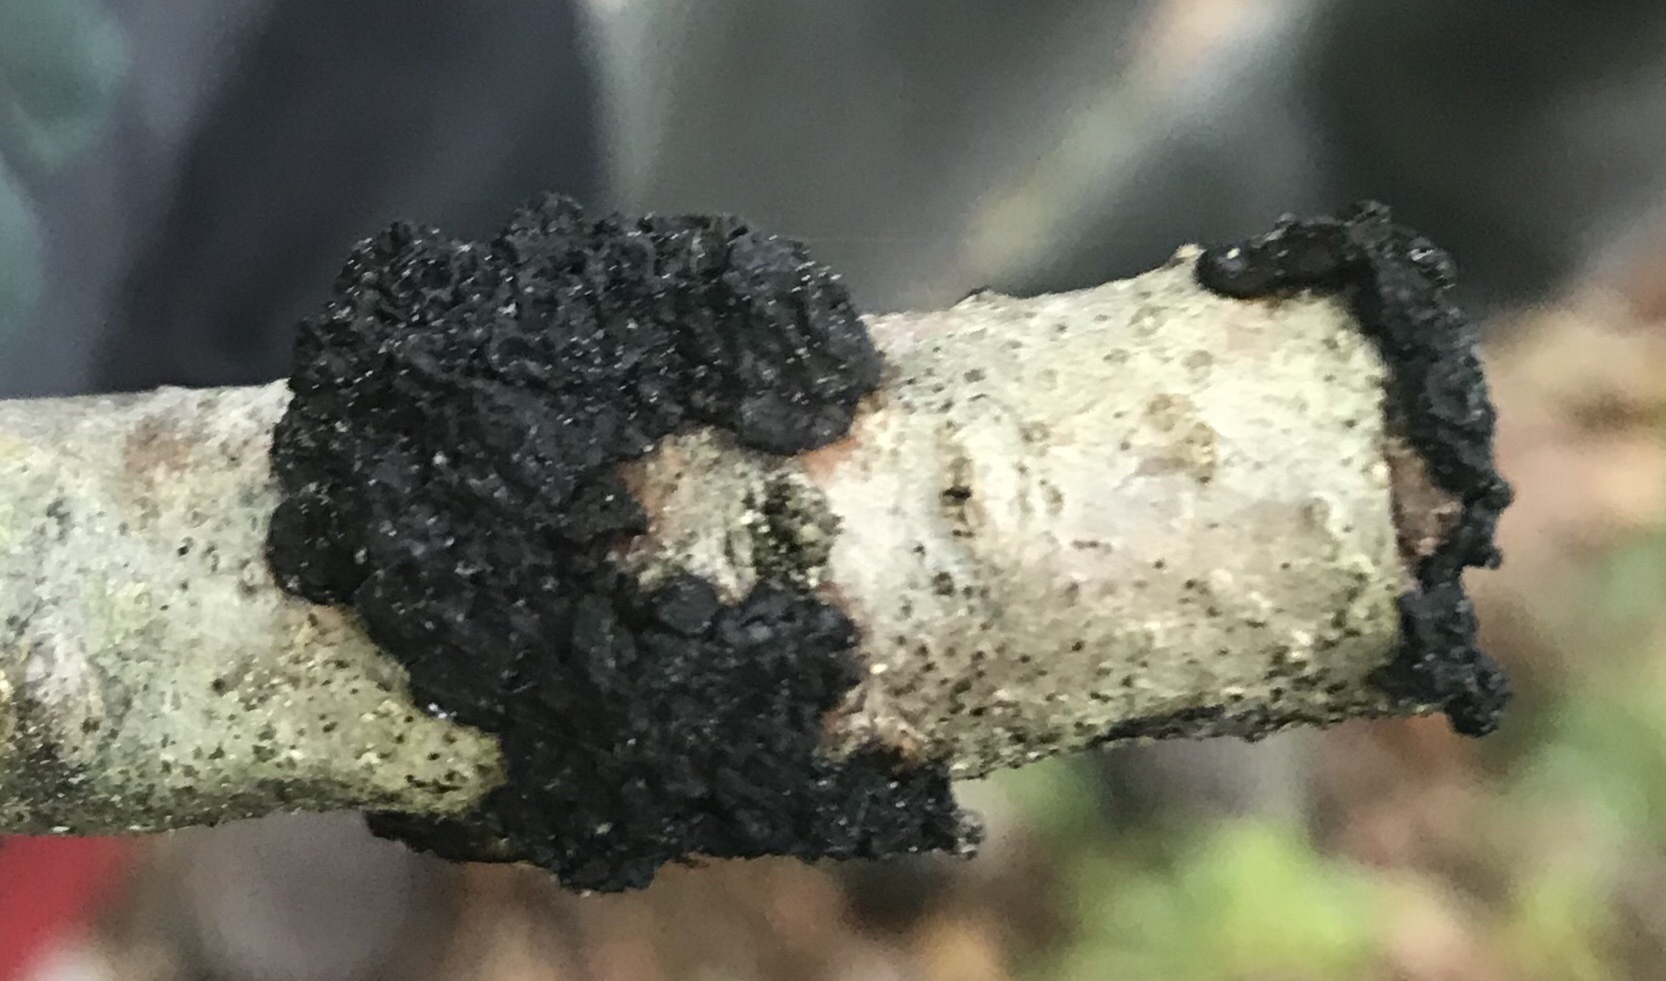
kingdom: Fungi
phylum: Basidiomycota
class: Agaricomycetes
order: Auriculariales
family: Auriculariaceae
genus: Exidia
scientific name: Exidia glandulosa
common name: Witches' butter
